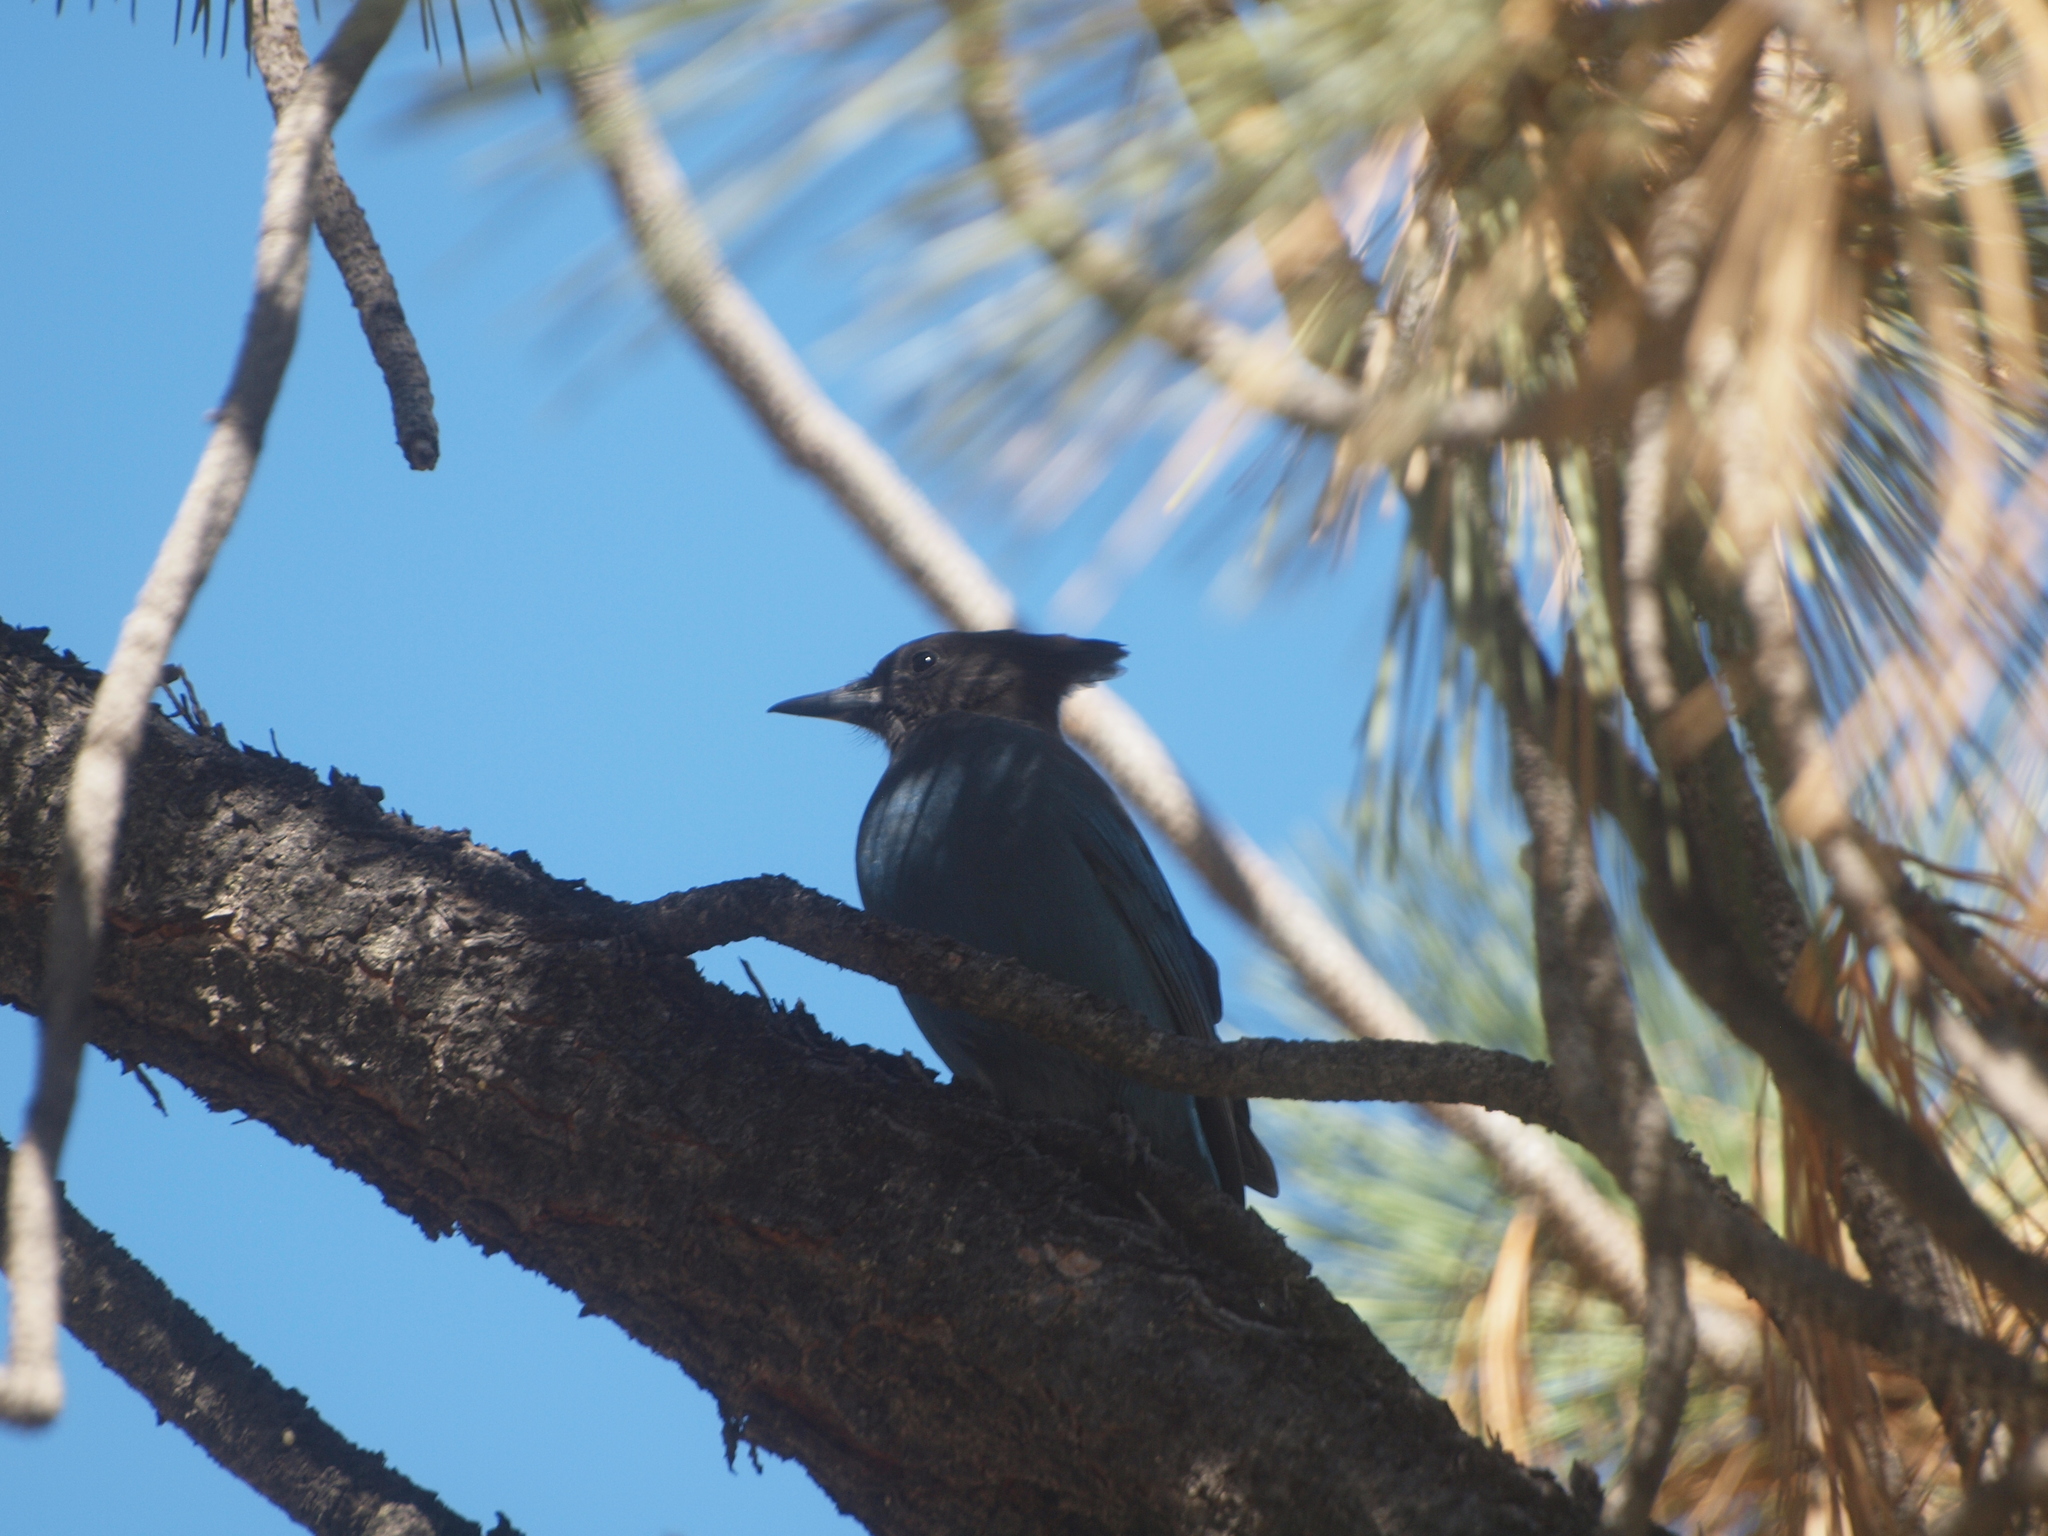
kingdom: Animalia
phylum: Chordata
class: Aves
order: Passeriformes
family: Corvidae
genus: Cyanocitta
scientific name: Cyanocitta stelleri
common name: Steller's jay
